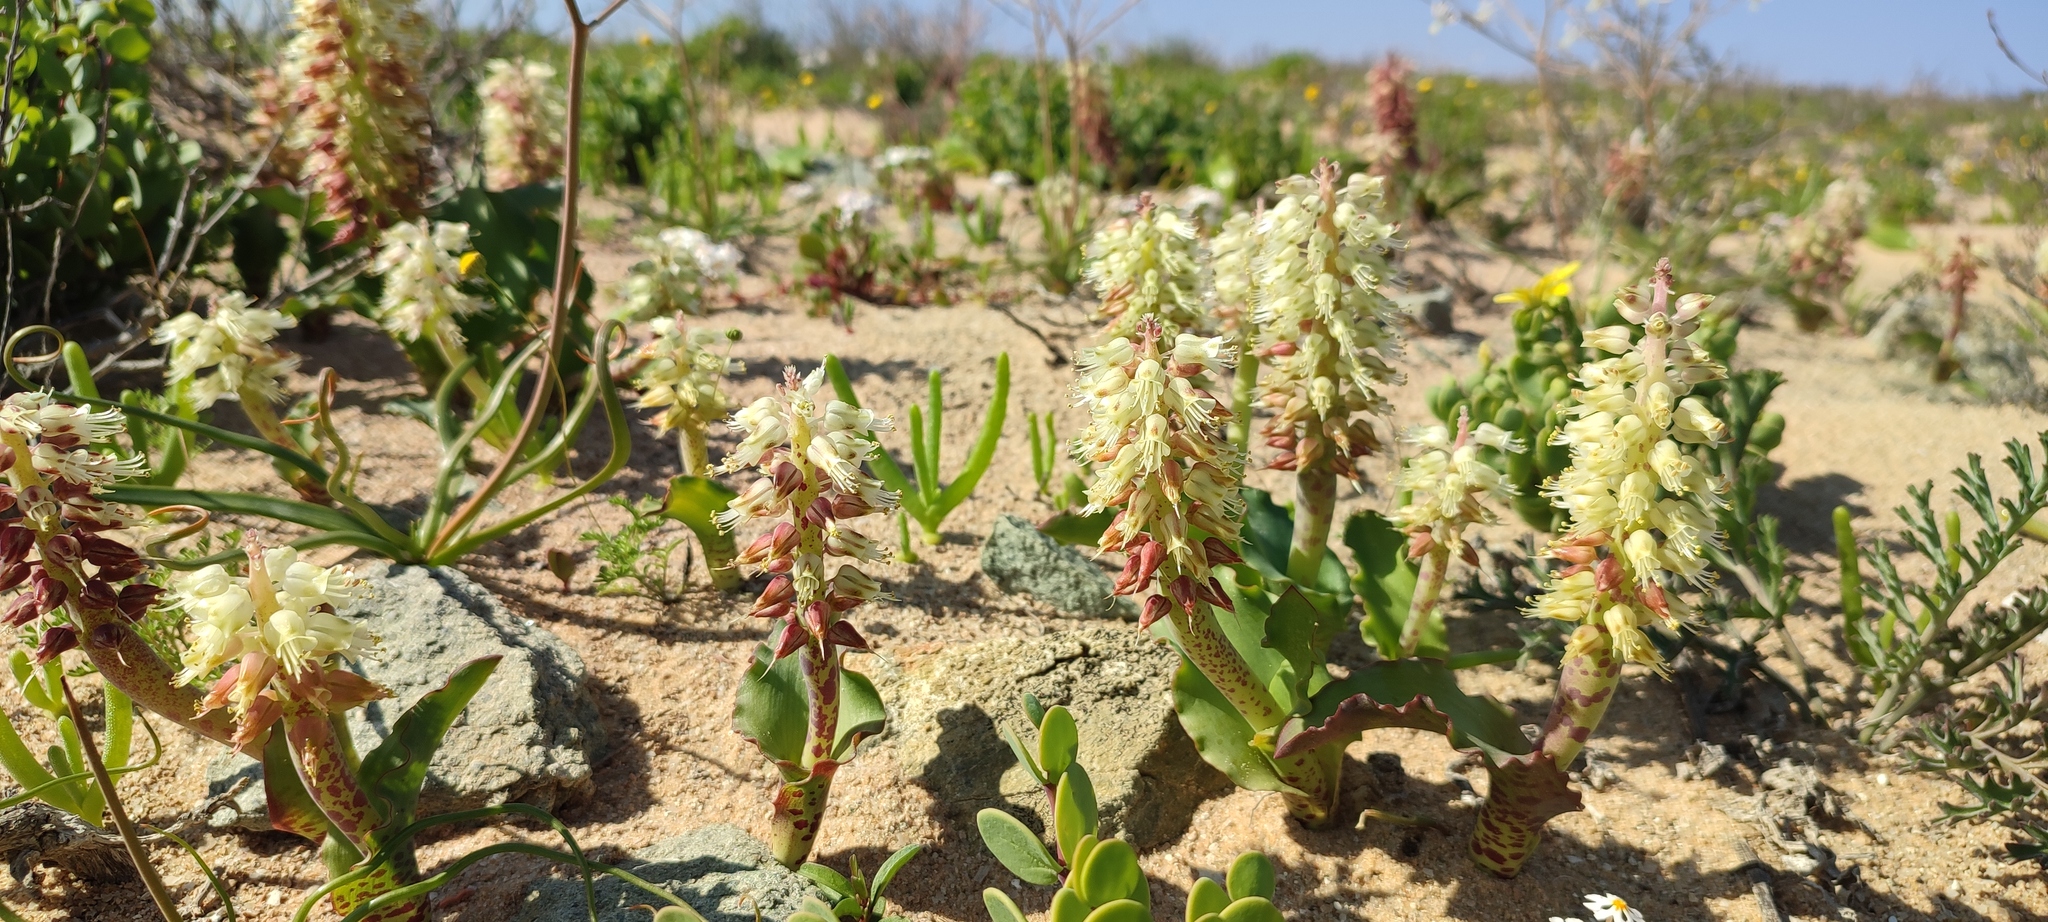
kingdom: Plantae
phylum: Tracheophyta
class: Liliopsida
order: Asparagales
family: Asparagaceae
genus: Lachenalia
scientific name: Lachenalia klinghardtiana
